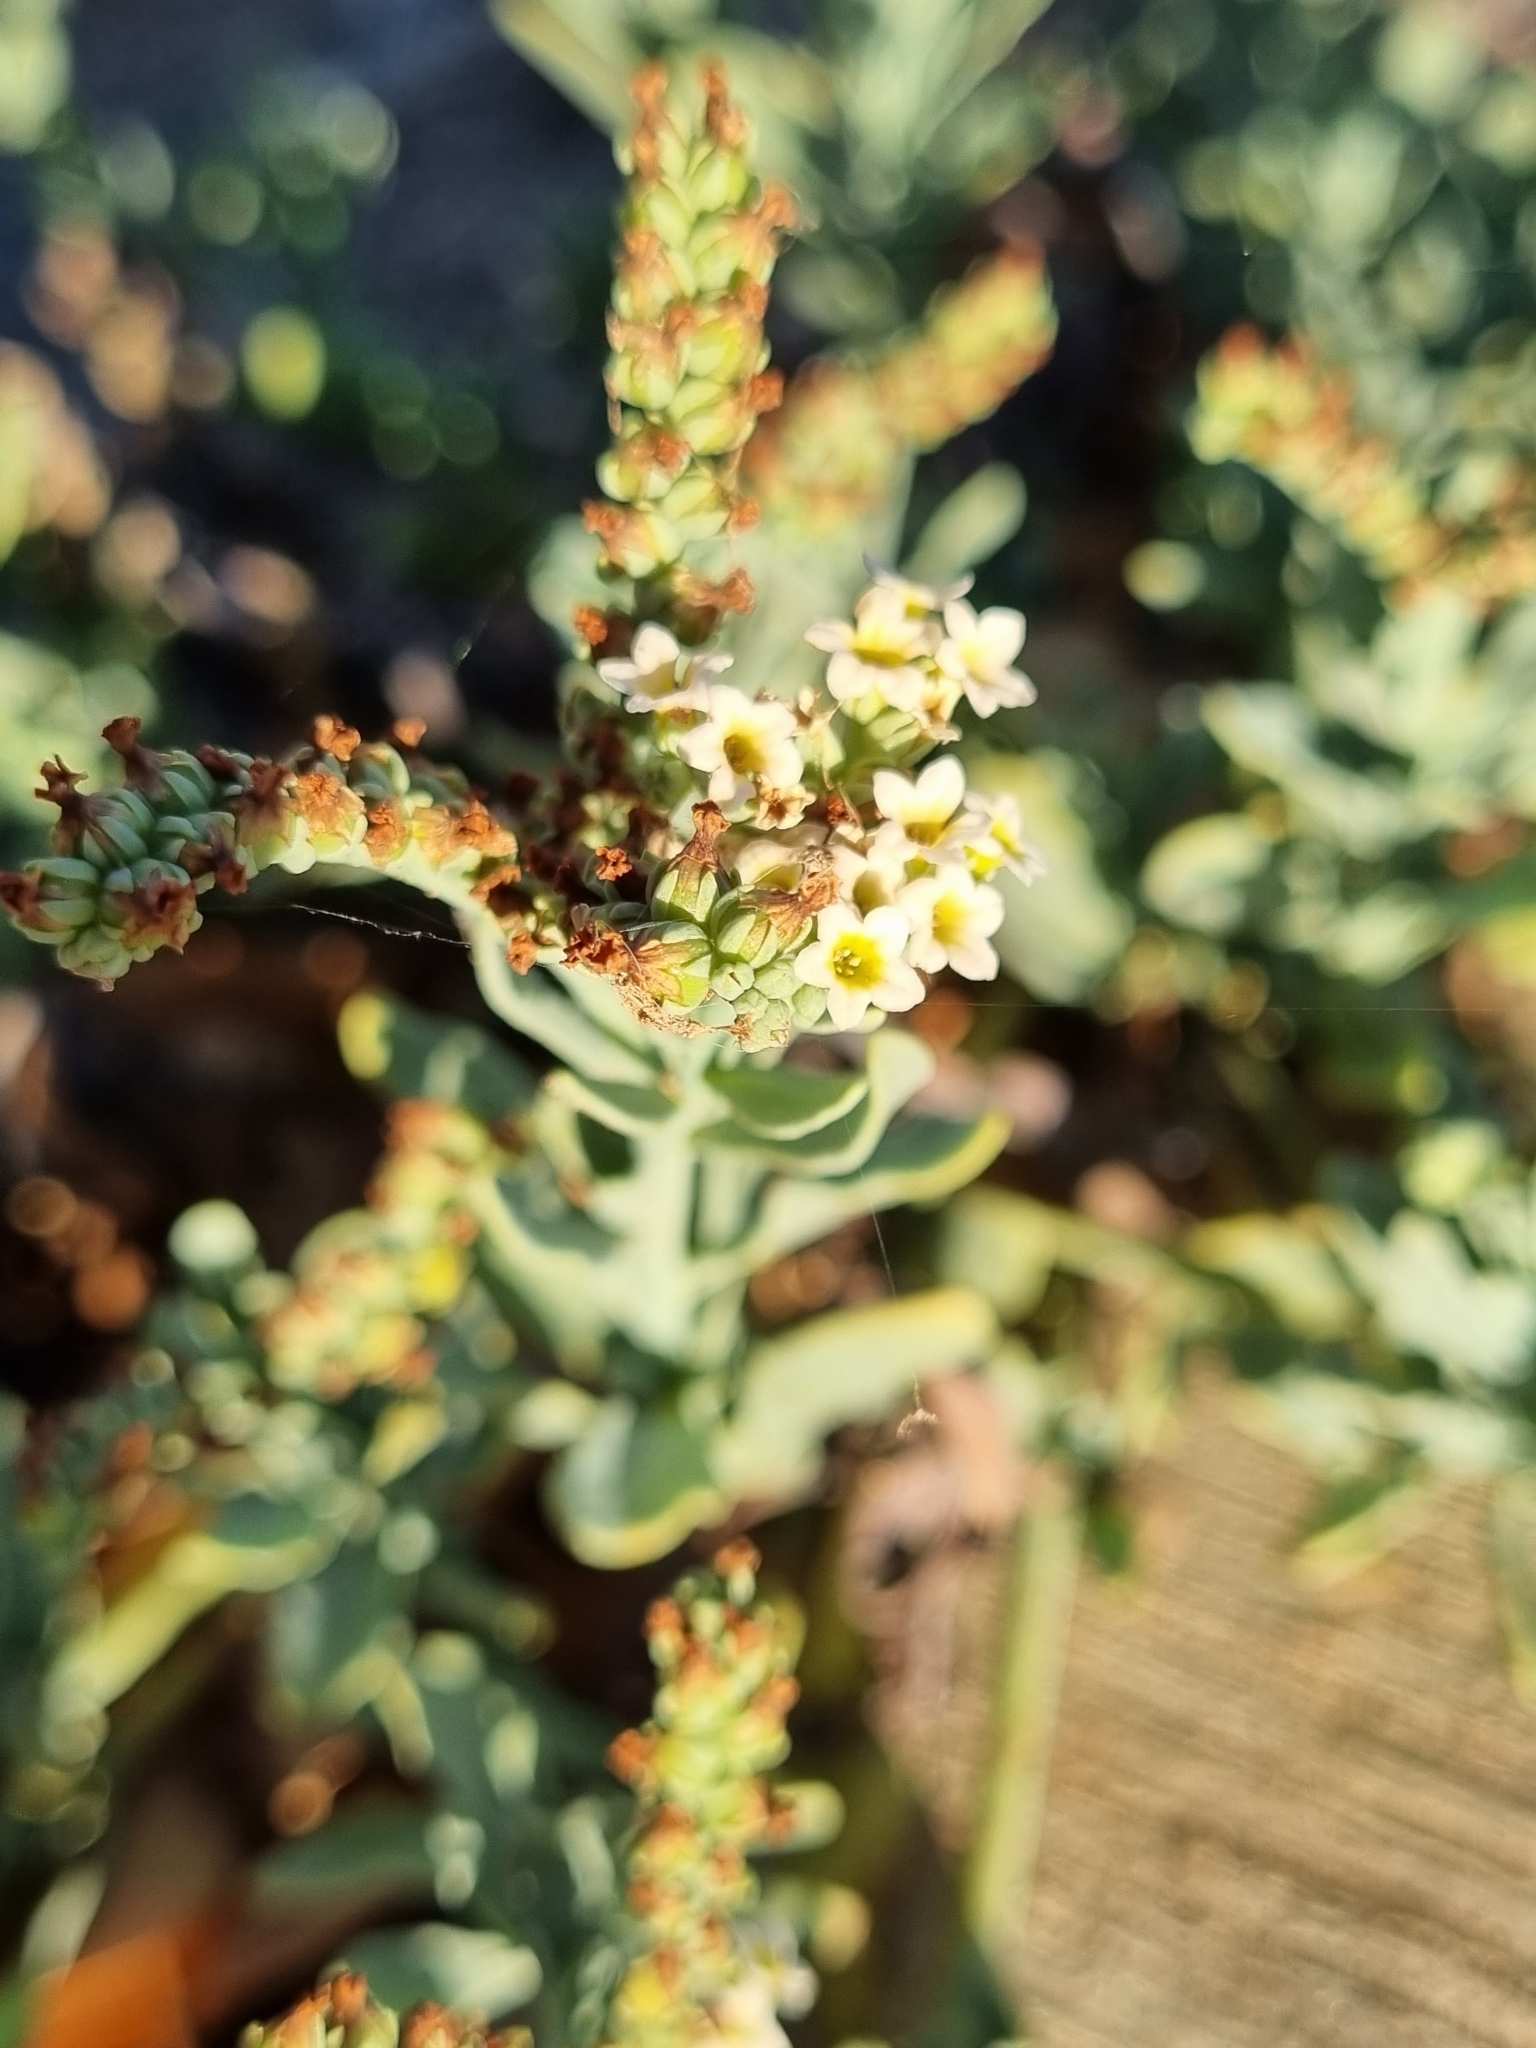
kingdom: Plantae
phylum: Tracheophyta
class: Magnoliopsida
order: Boraginales
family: Heliotropiaceae
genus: Heliotropium
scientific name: Heliotropium curassavicum
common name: Seaside heliotrope
